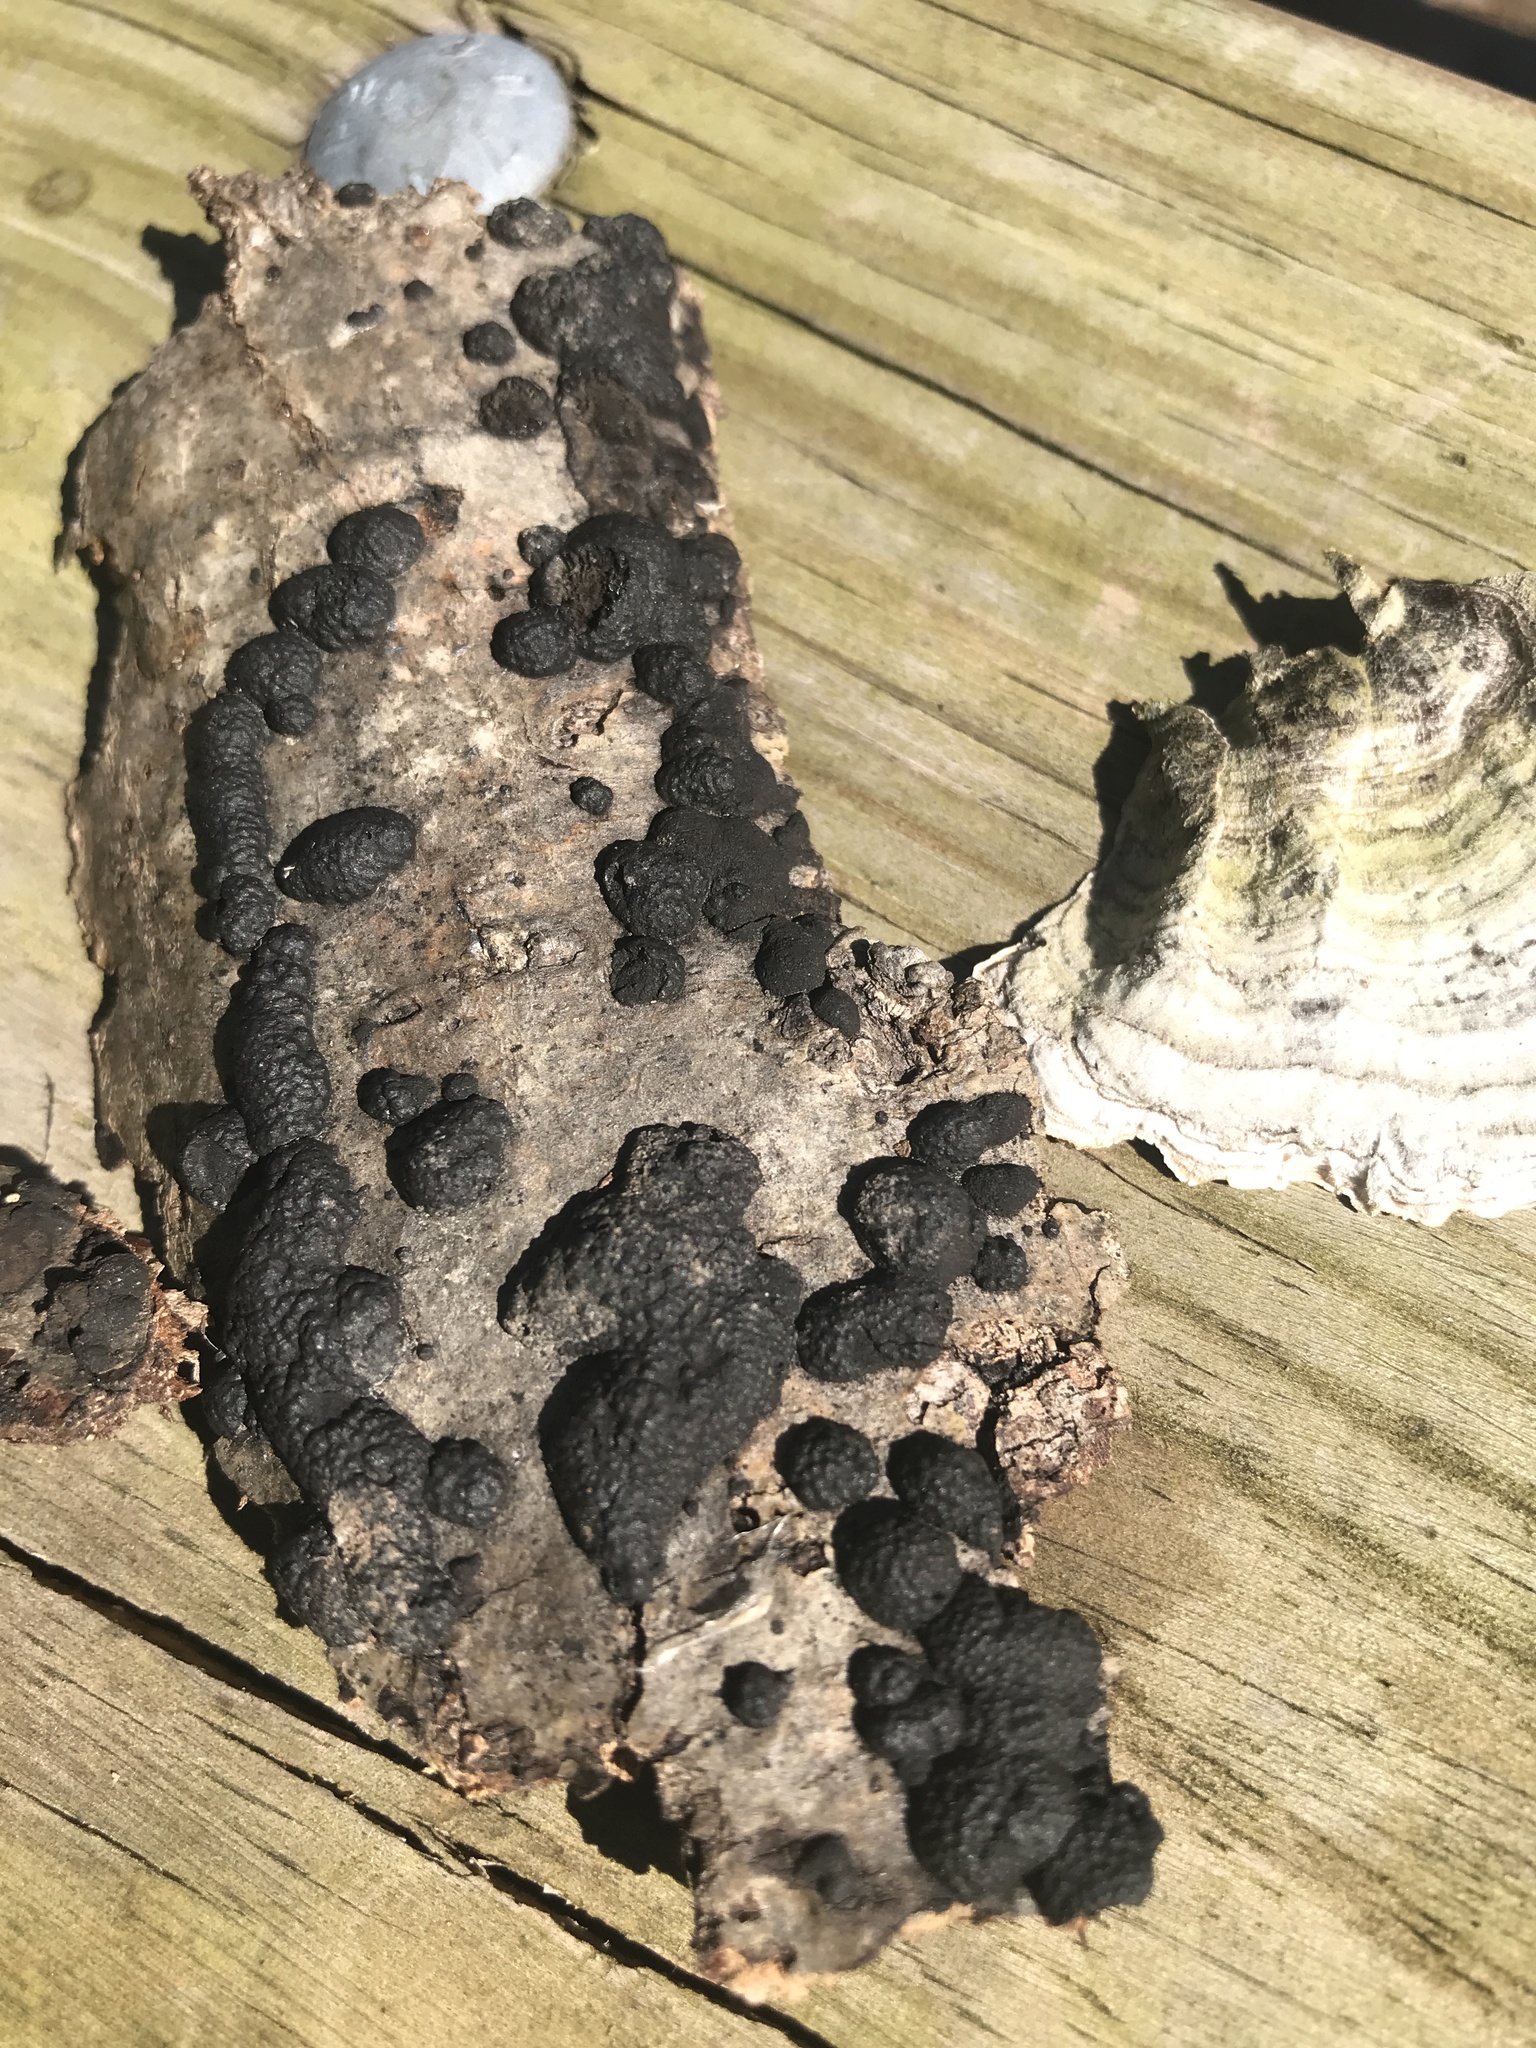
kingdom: Fungi
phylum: Ascomycota
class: Sordariomycetes
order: Xylariales
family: Hypoxylaceae
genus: Jackrogersella
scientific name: Jackrogersella multiformis
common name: Birch woodwart
